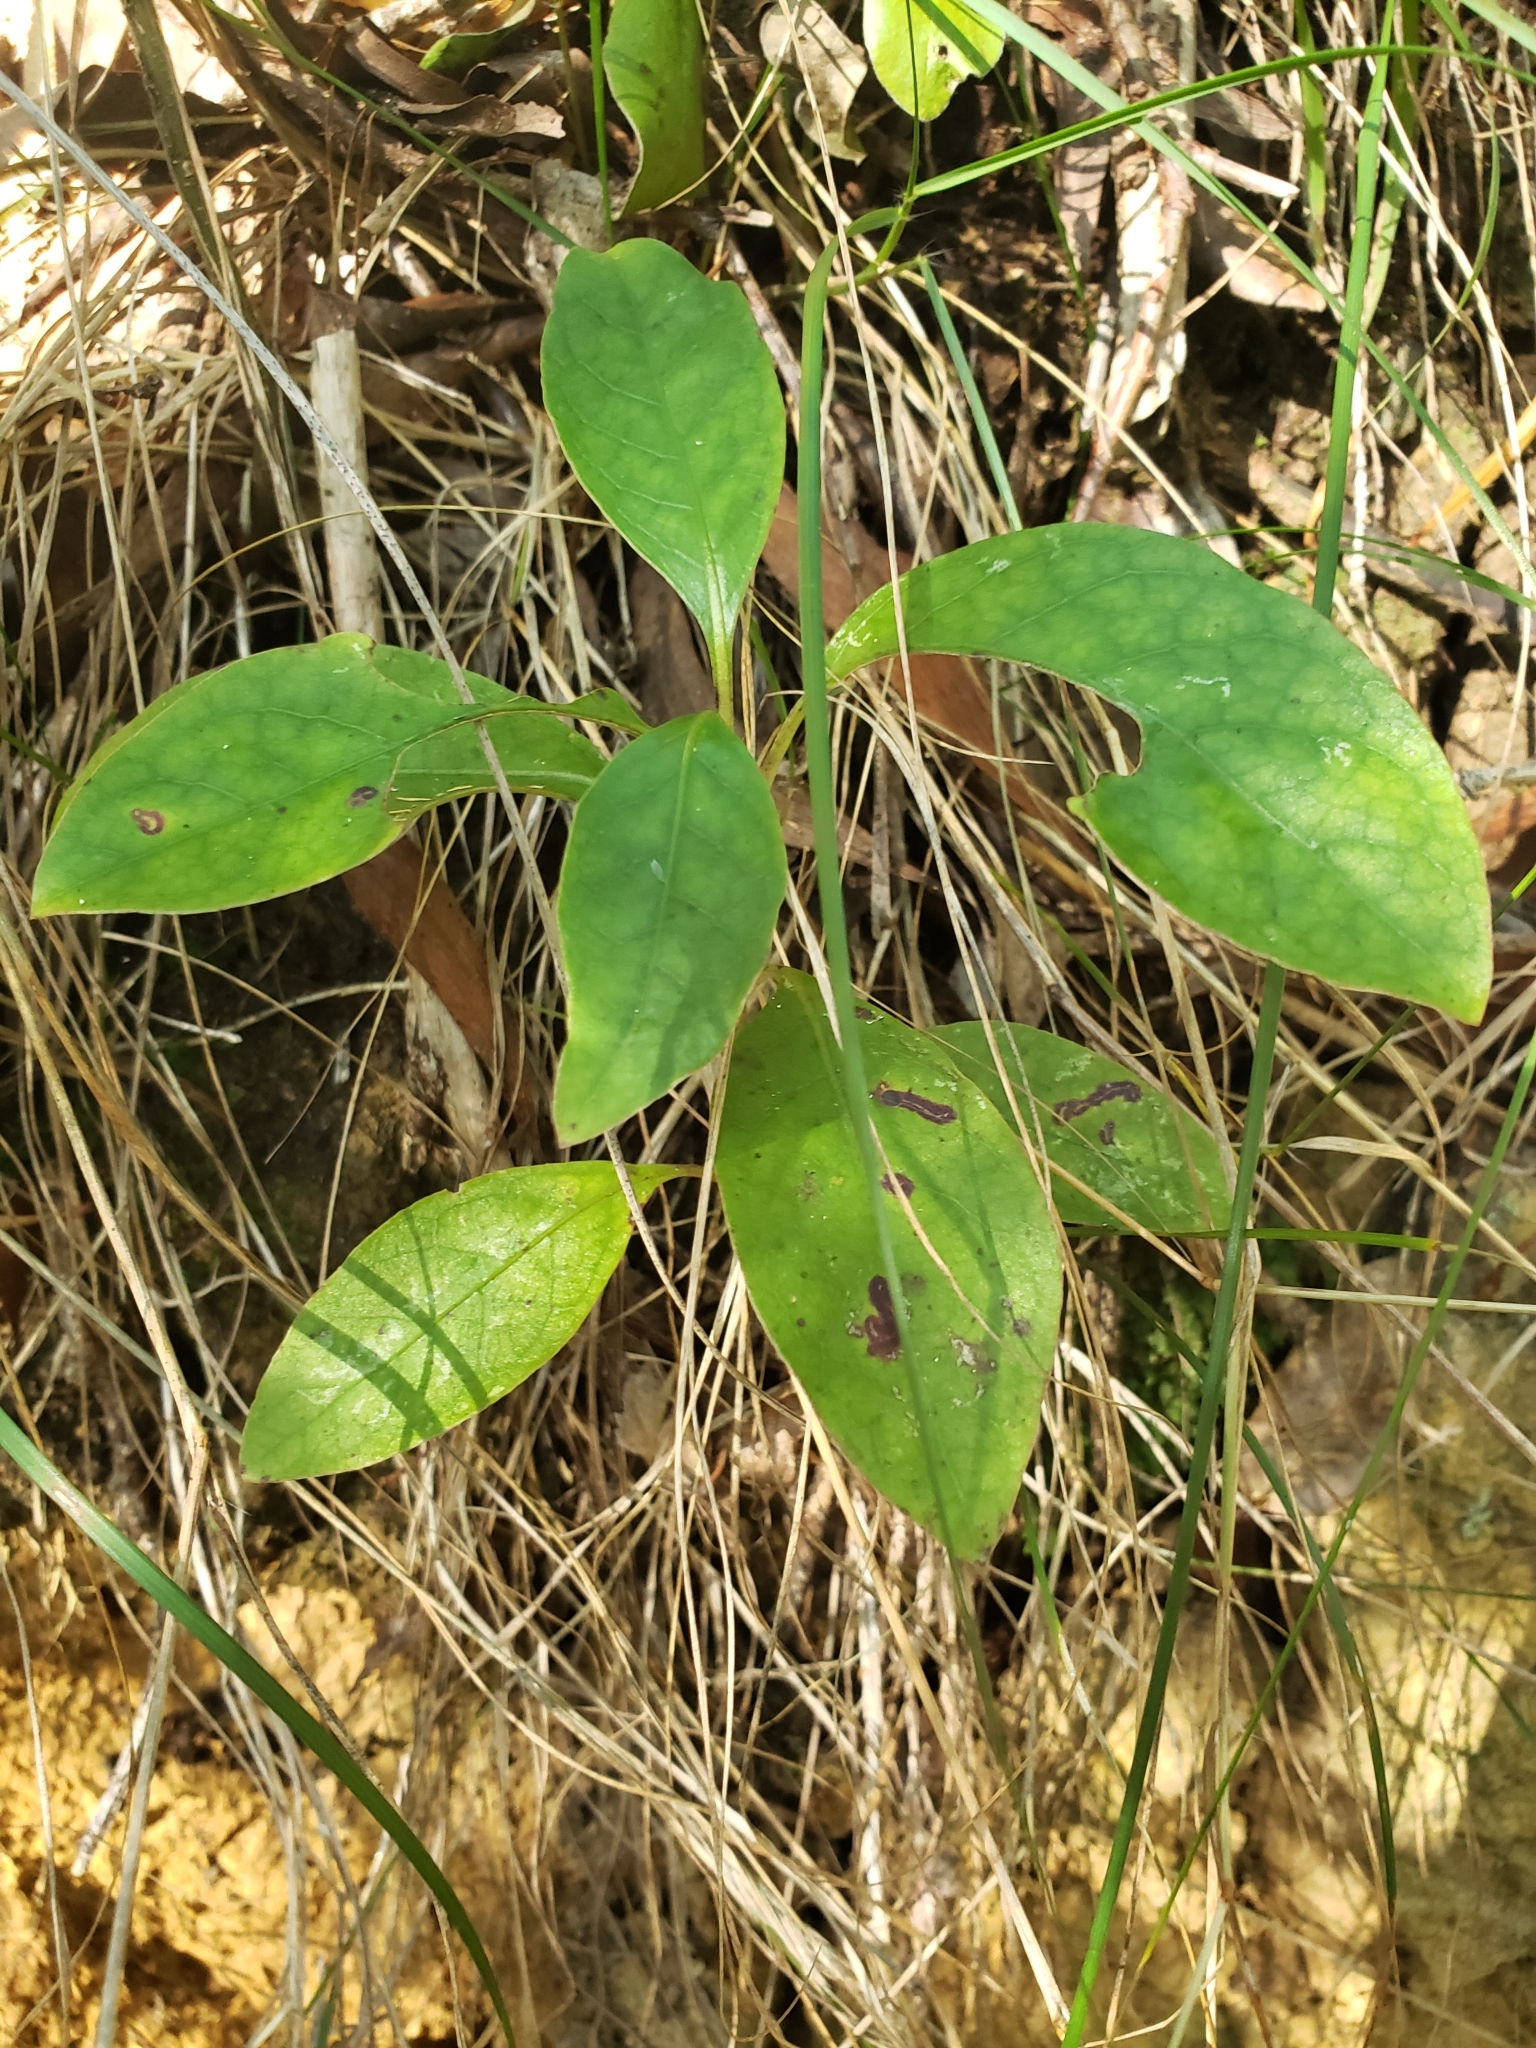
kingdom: Plantae
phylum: Tracheophyta
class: Magnoliopsida
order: Gentianales
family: Rubiaceae
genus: Coprosma
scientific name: Coprosma autumnalis
